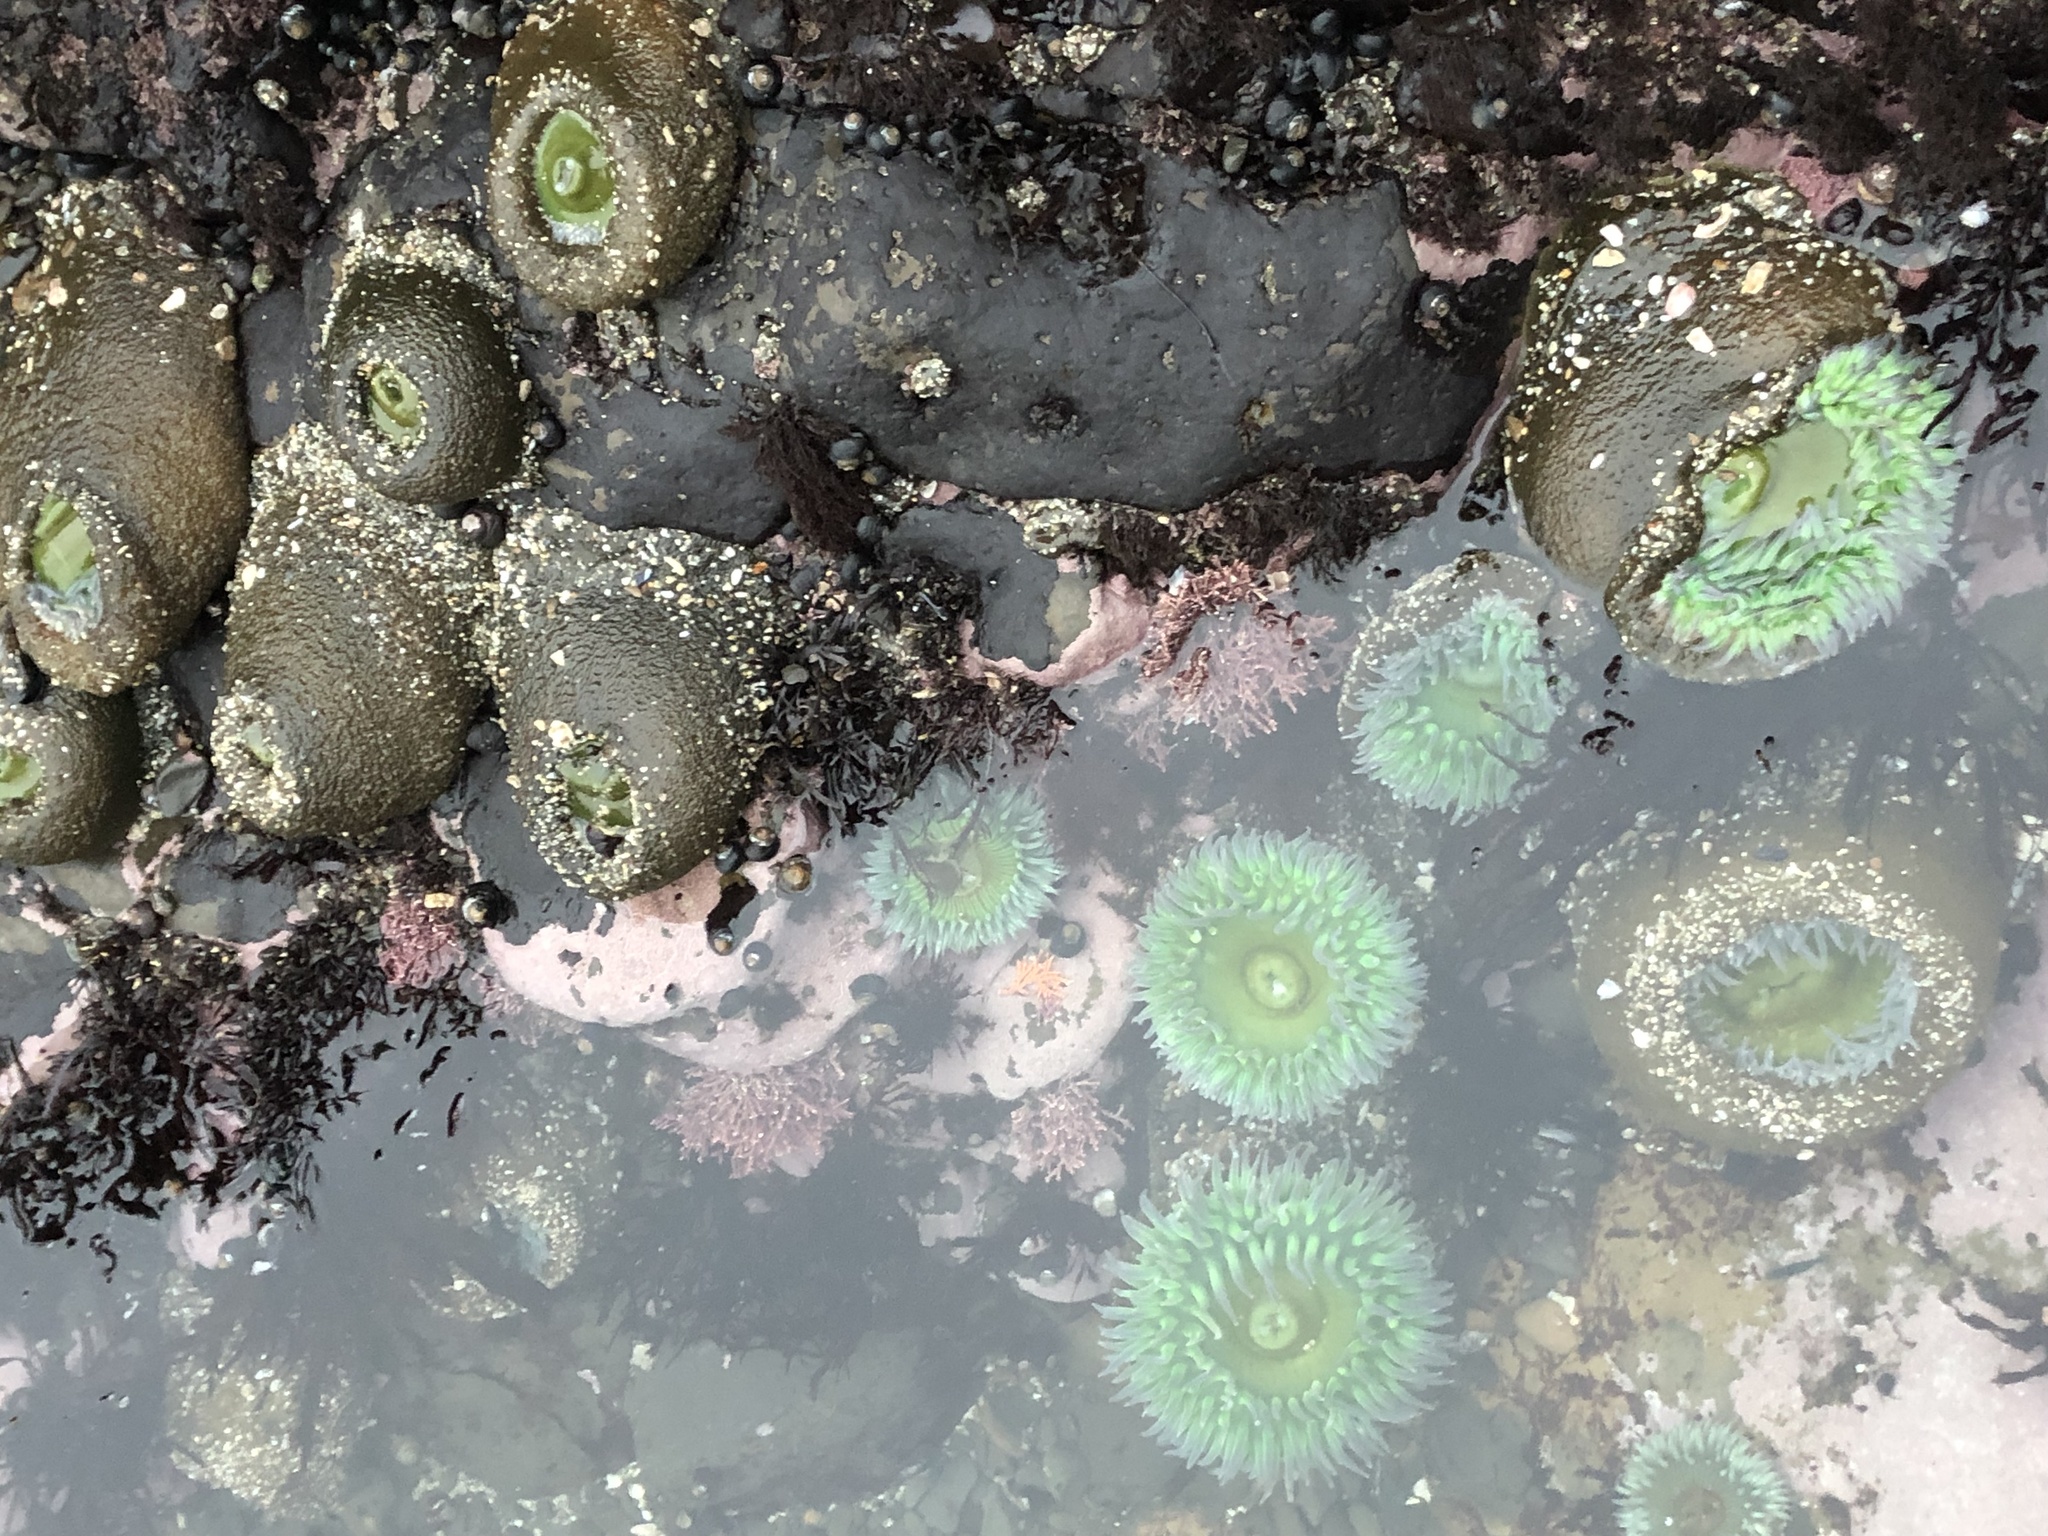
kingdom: Animalia
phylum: Cnidaria
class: Anthozoa
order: Actiniaria
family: Actiniidae
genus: Anthopleura
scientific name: Anthopleura xanthogrammica
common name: Giant green anemone
